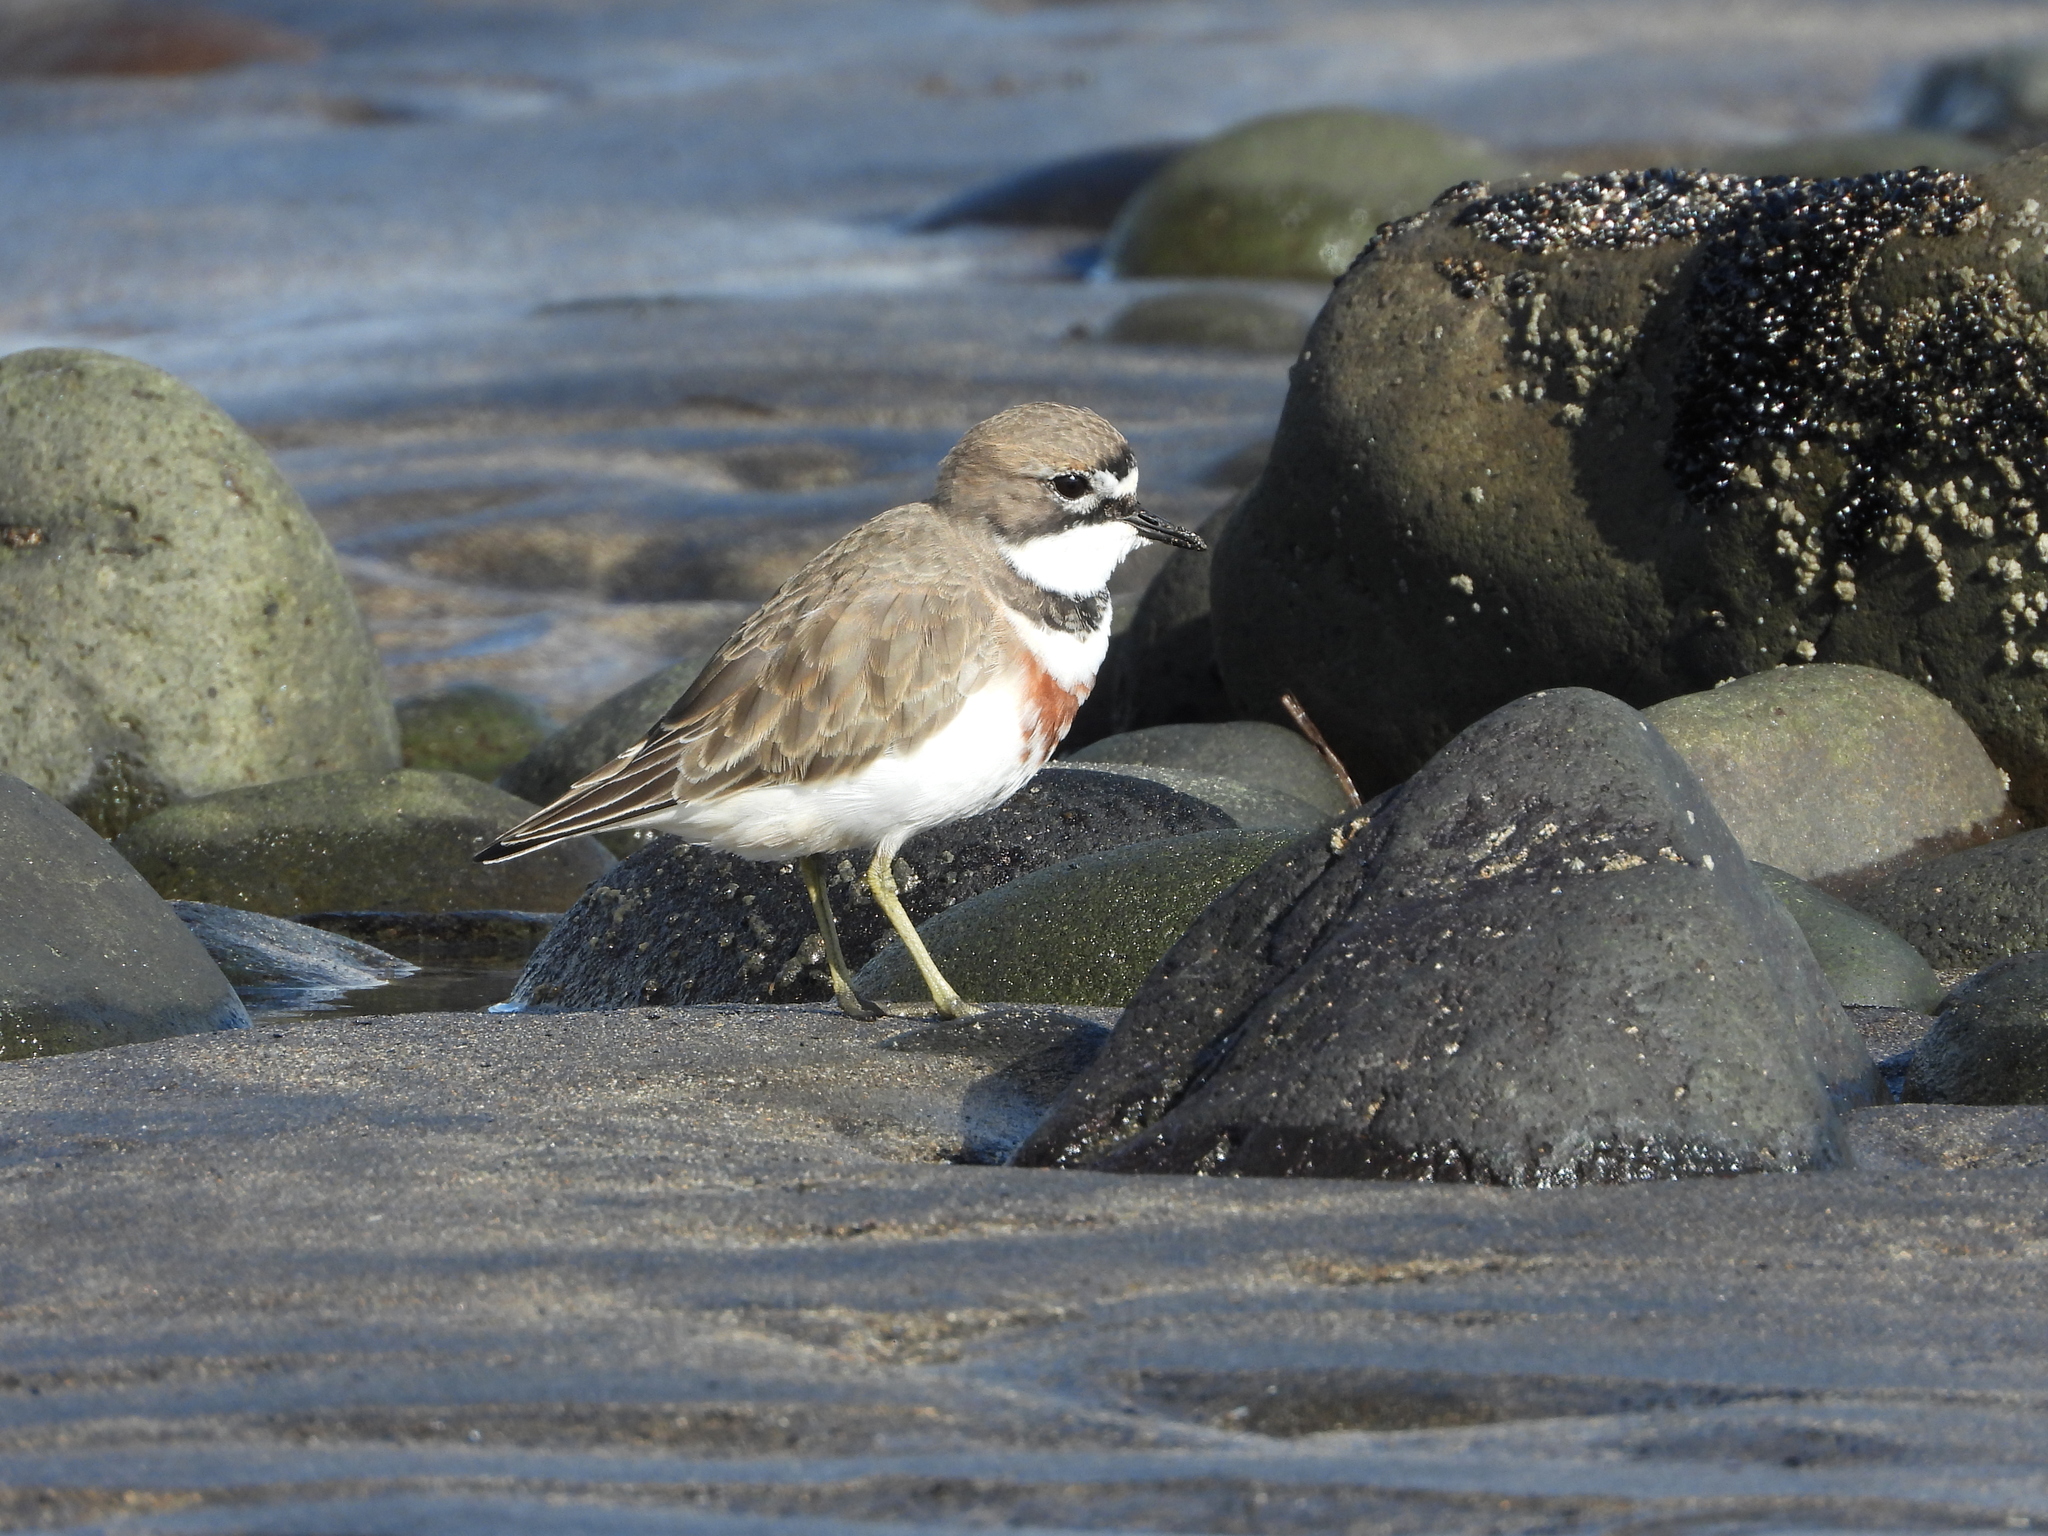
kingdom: Animalia
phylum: Chordata
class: Aves
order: Charadriiformes
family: Charadriidae
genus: Anarhynchus
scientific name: Anarhynchus
